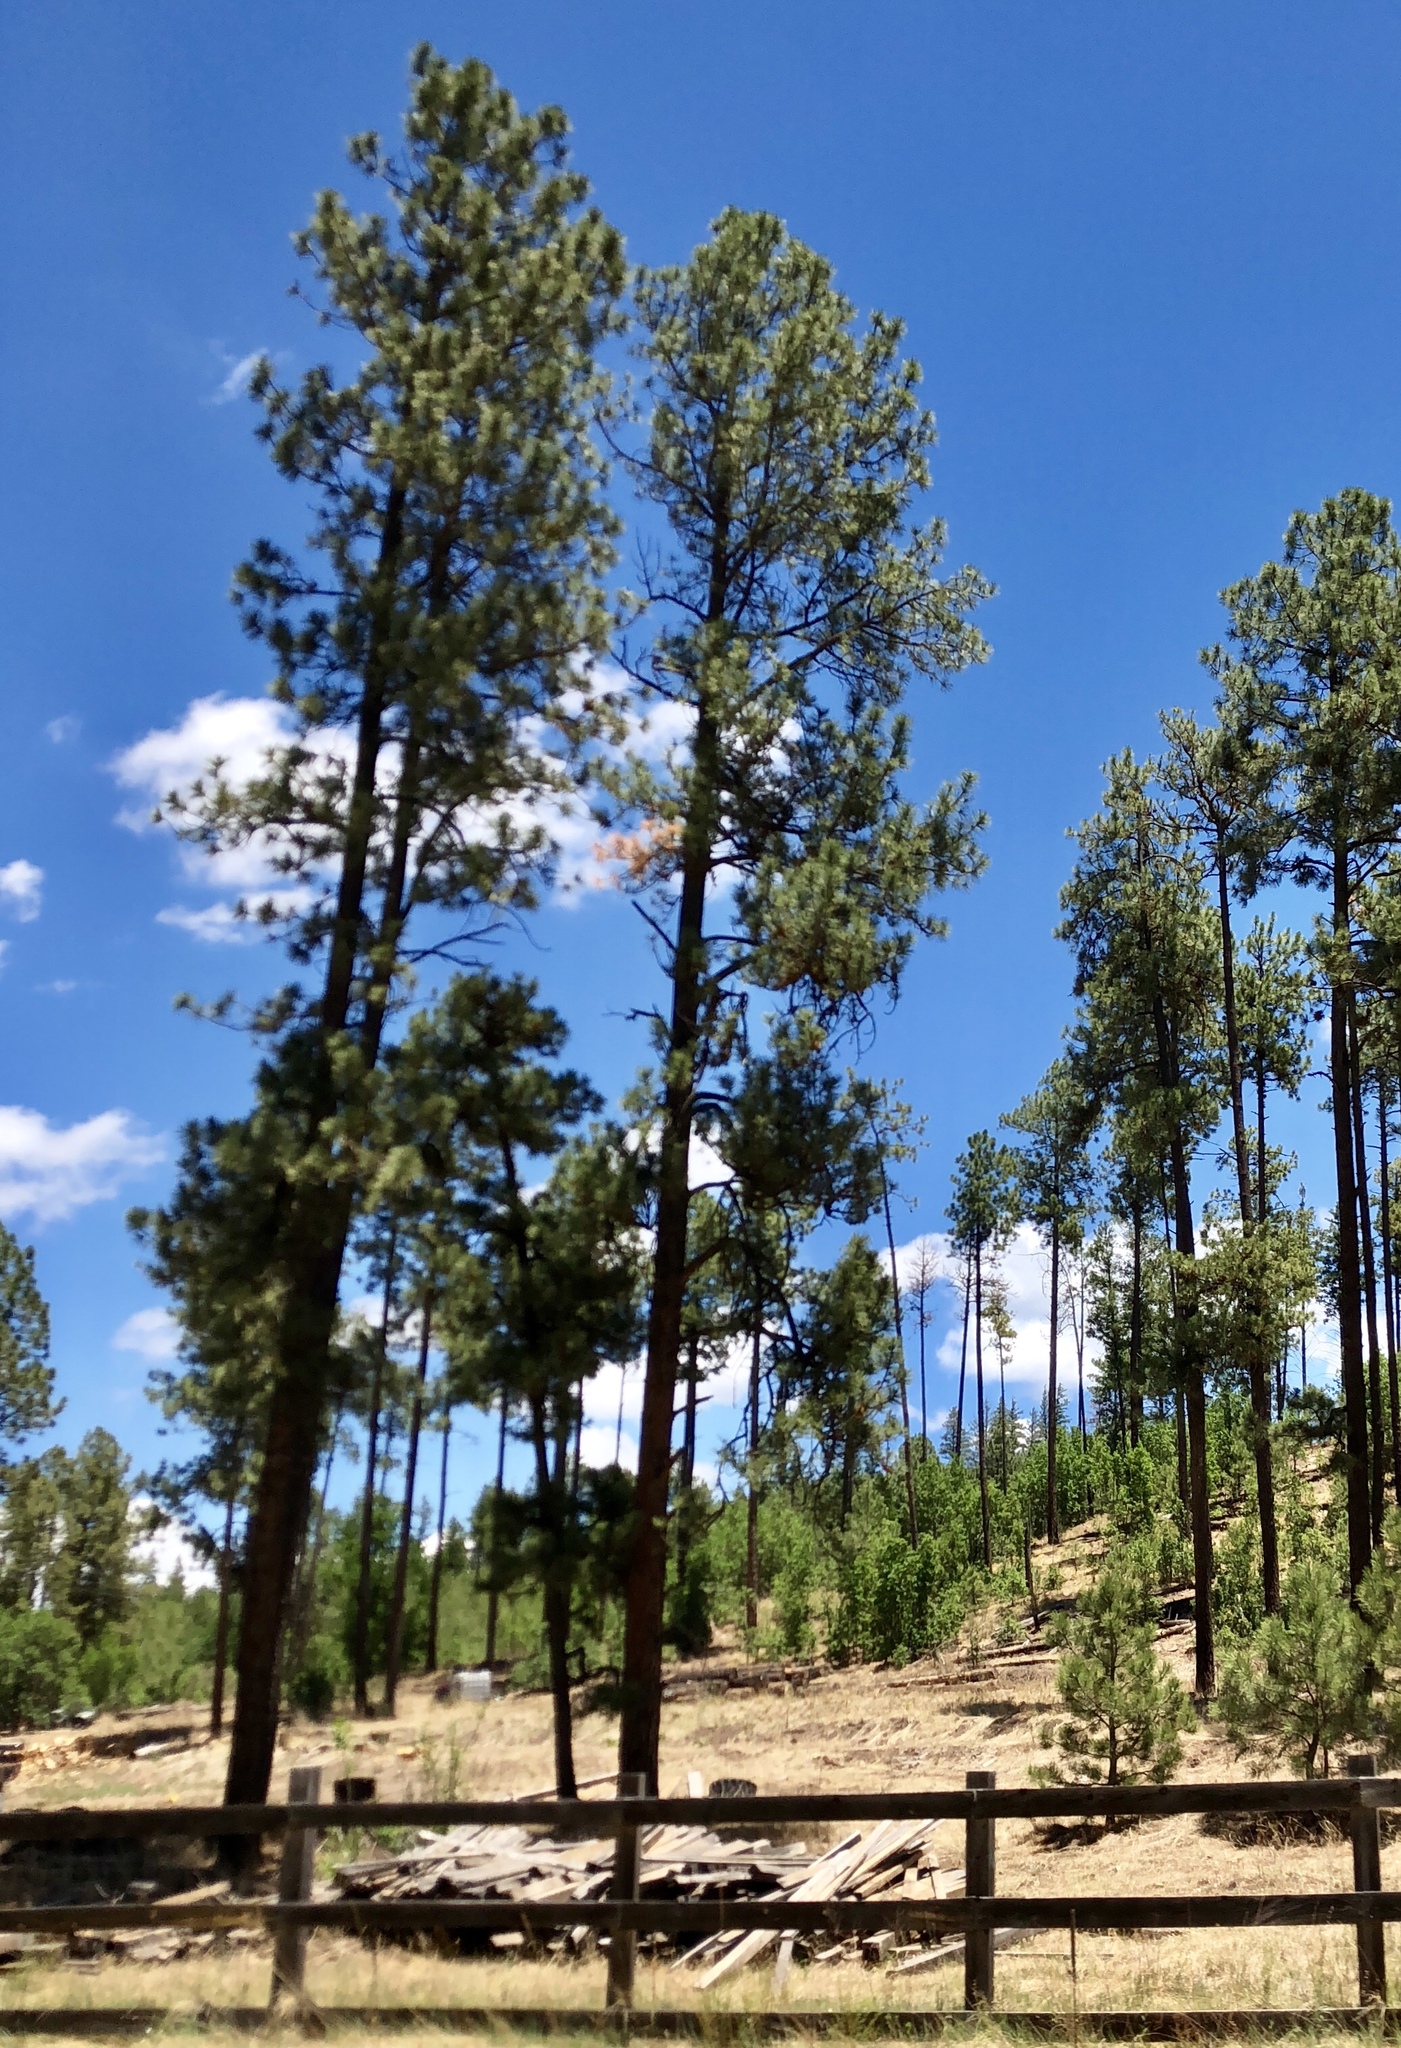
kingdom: Plantae
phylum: Tracheophyta
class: Pinopsida
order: Pinales
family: Pinaceae
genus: Pinus
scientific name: Pinus ponderosa
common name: Western yellow-pine
